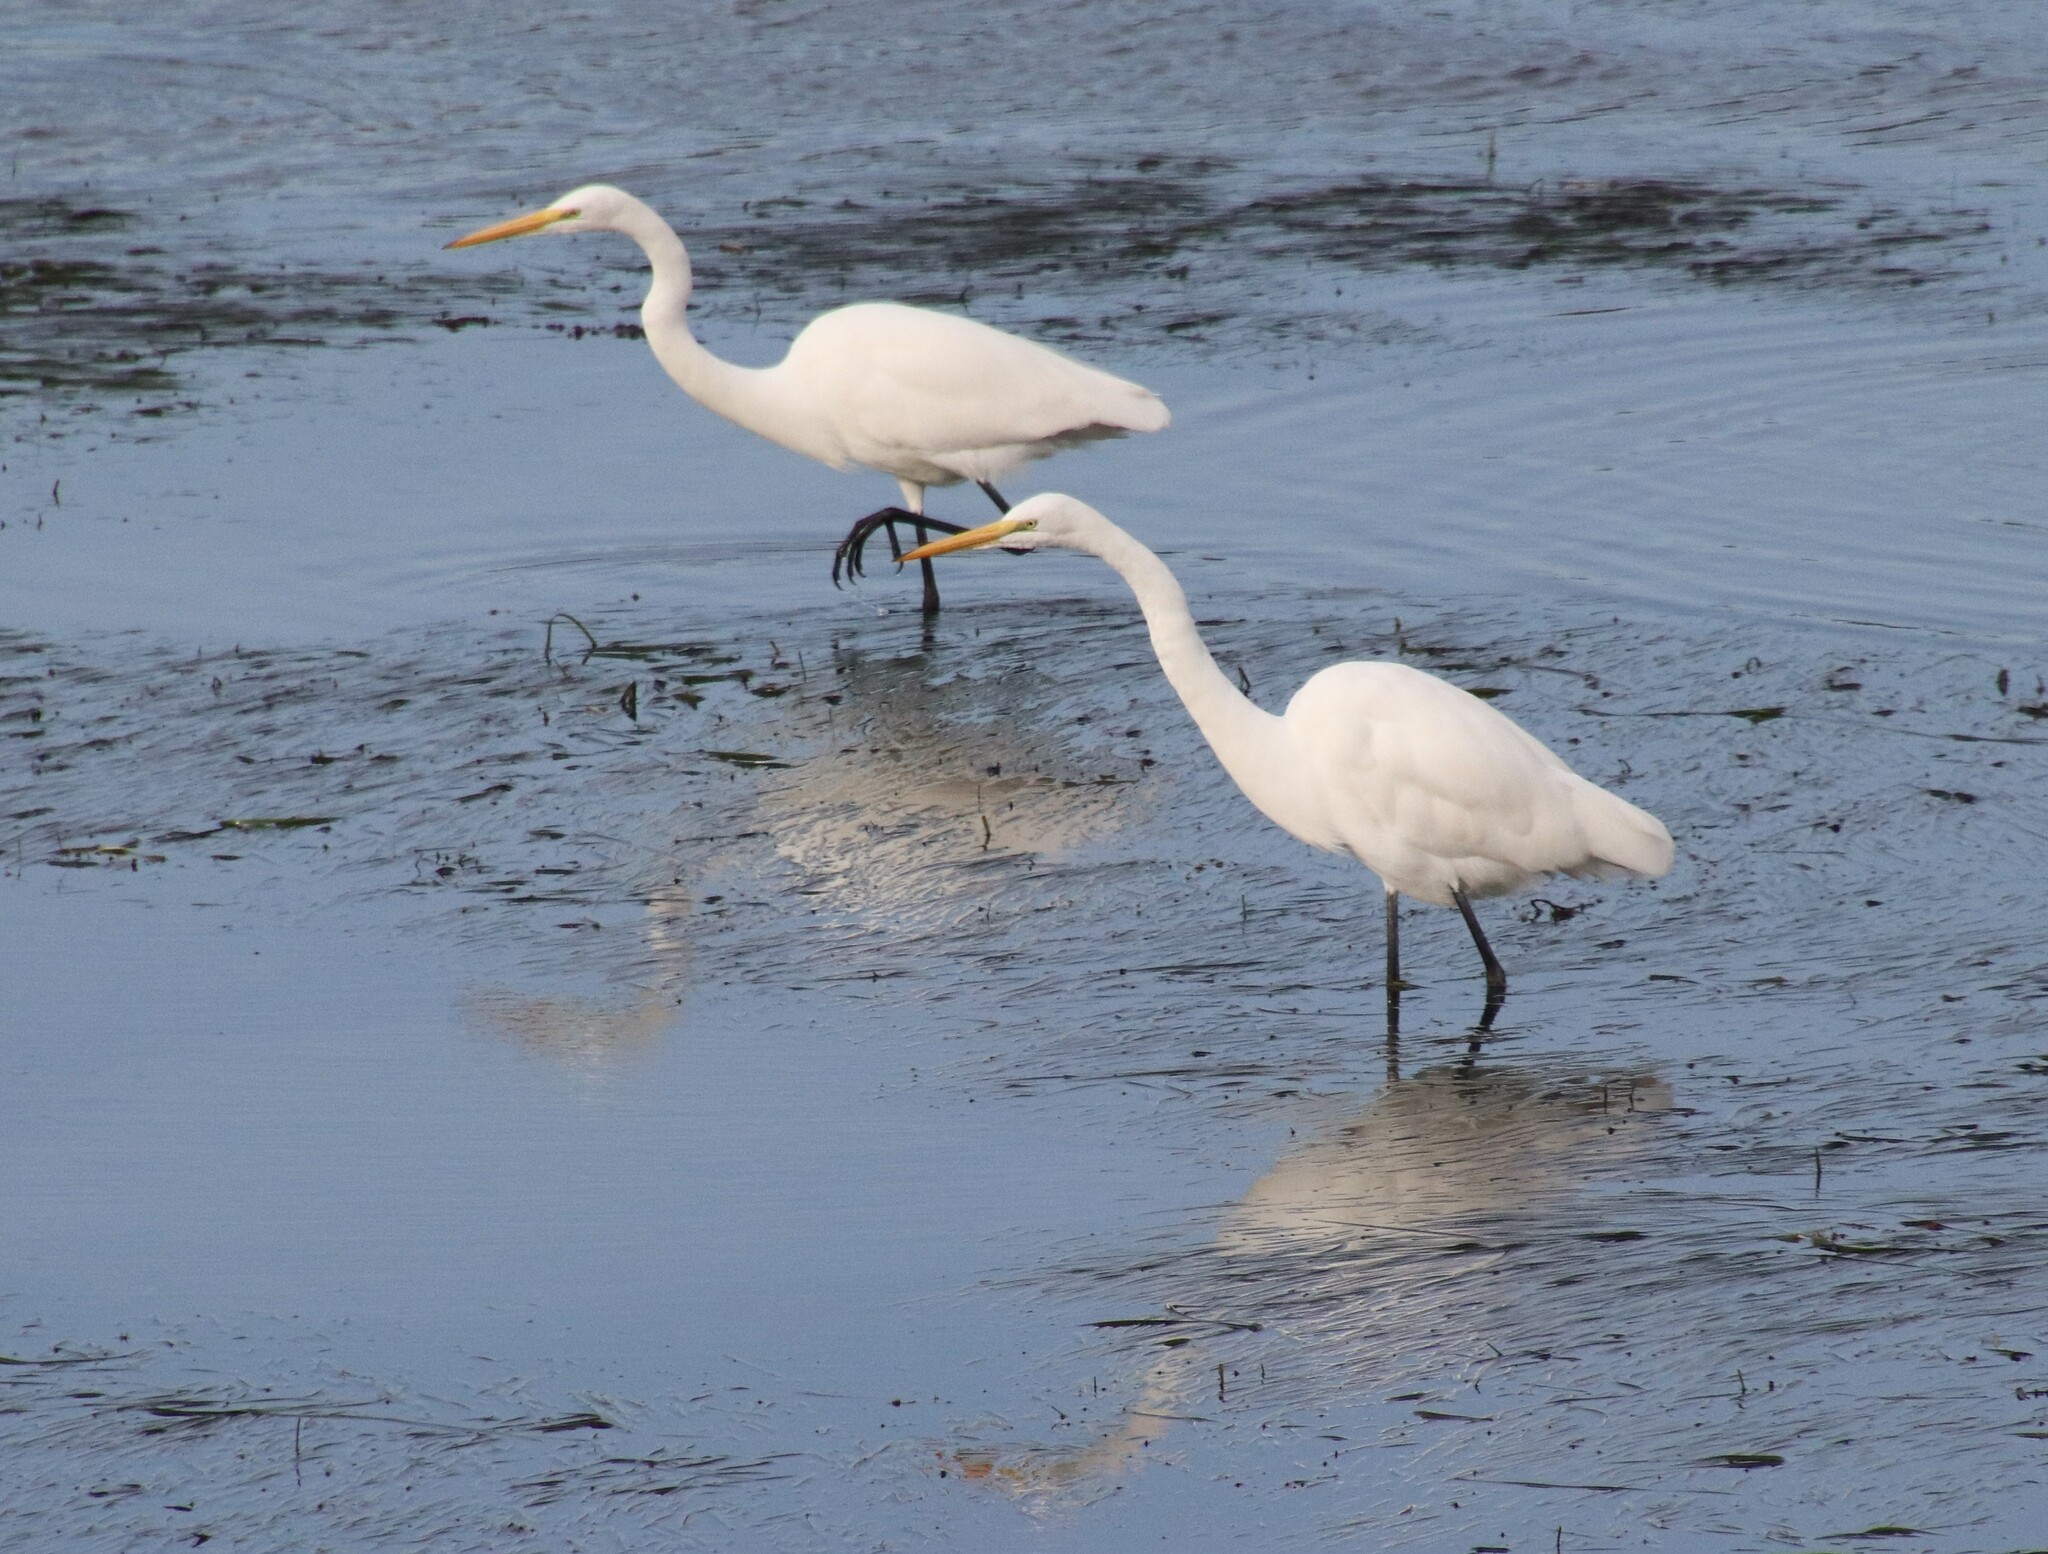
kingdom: Animalia
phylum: Chordata
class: Aves
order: Pelecaniformes
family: Ardeidae
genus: Ardea
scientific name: Ardea alba
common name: Great egret
